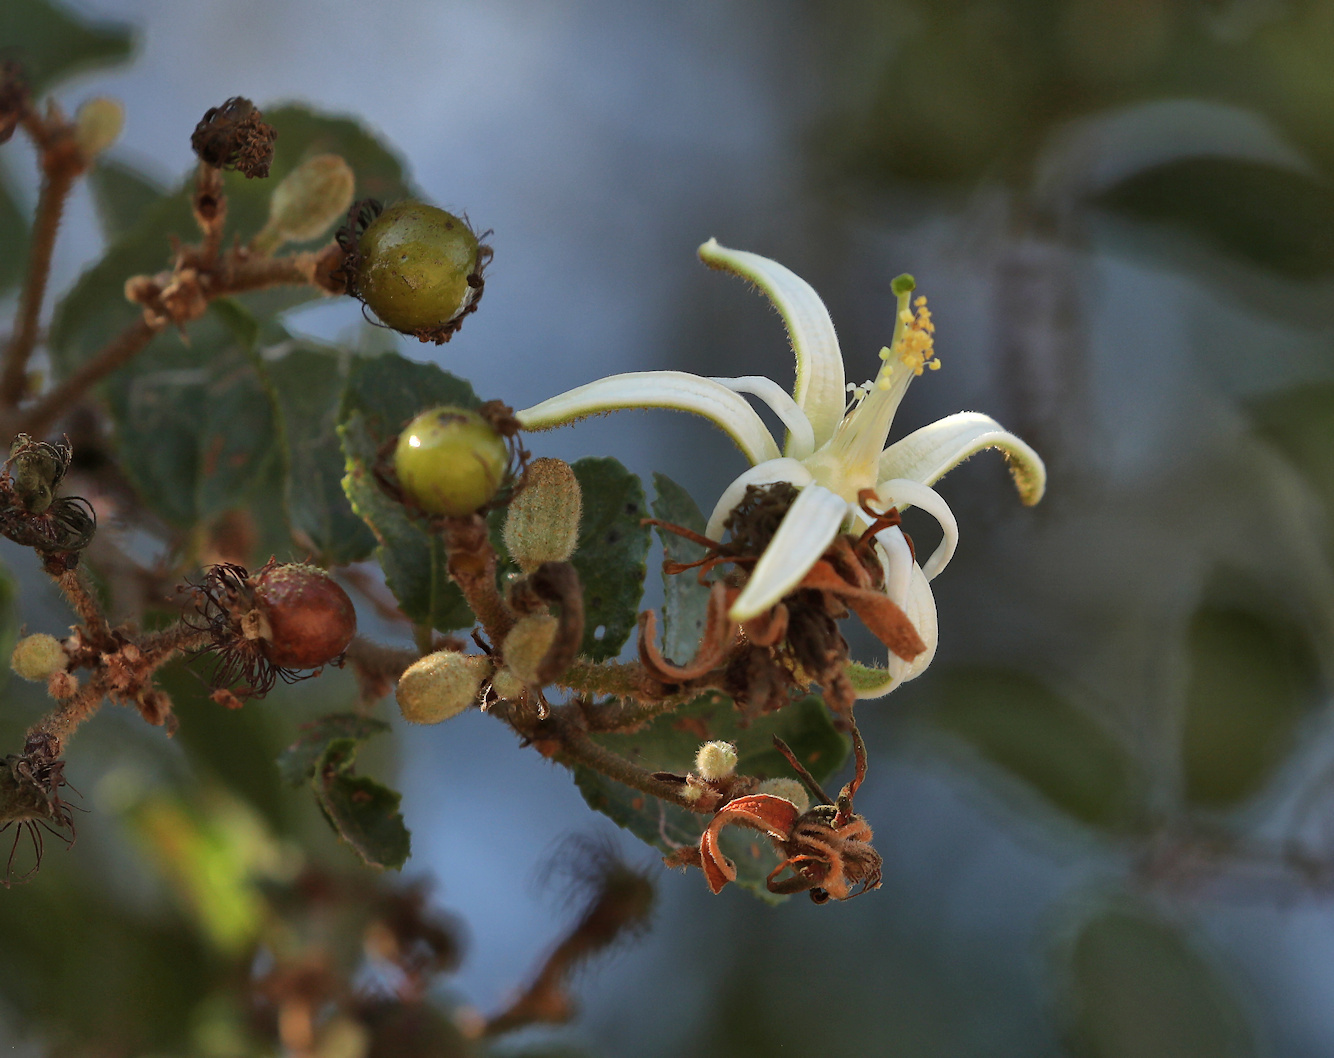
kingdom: Plantae
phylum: Tracheophyta
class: Magnoliopsida
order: Malvales
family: Malvaceae
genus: Grewia
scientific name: Grewia sulcata
